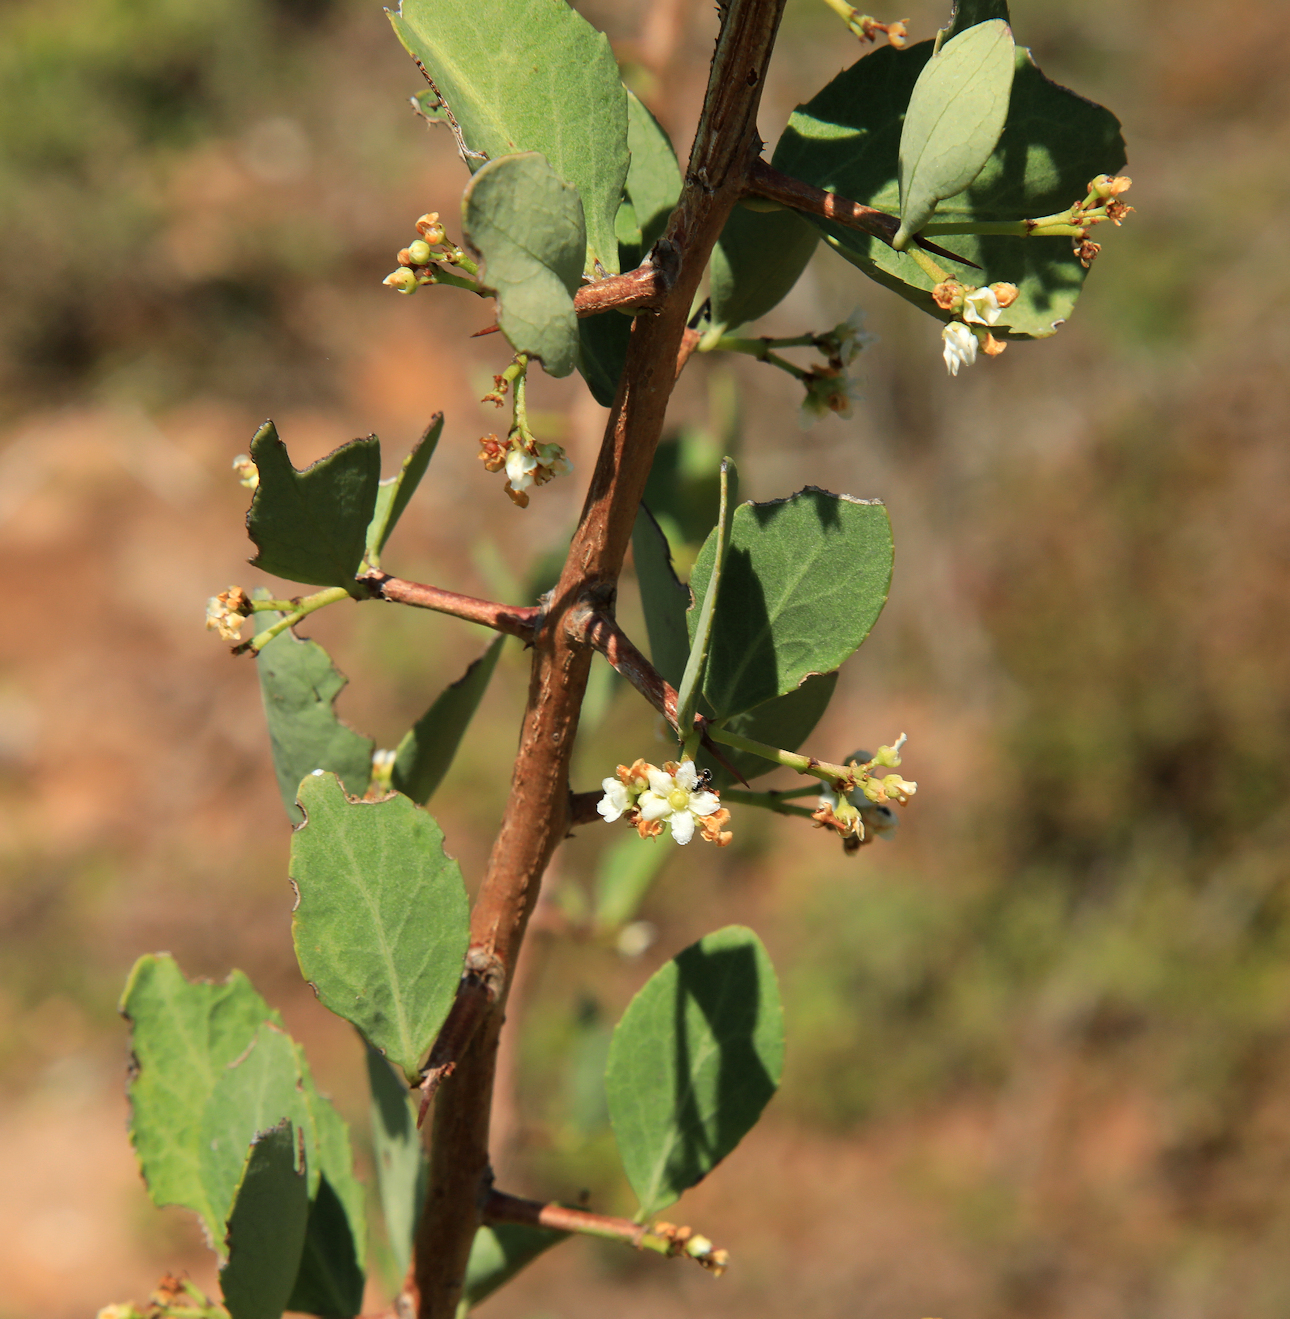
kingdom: Plantae
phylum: Tracheophyta
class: Magnoliopsida
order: Celastrales
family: Celastraceae
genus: Gymnosporia
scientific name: Gymnosporia glaucophylla
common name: Blue spike-thorn
